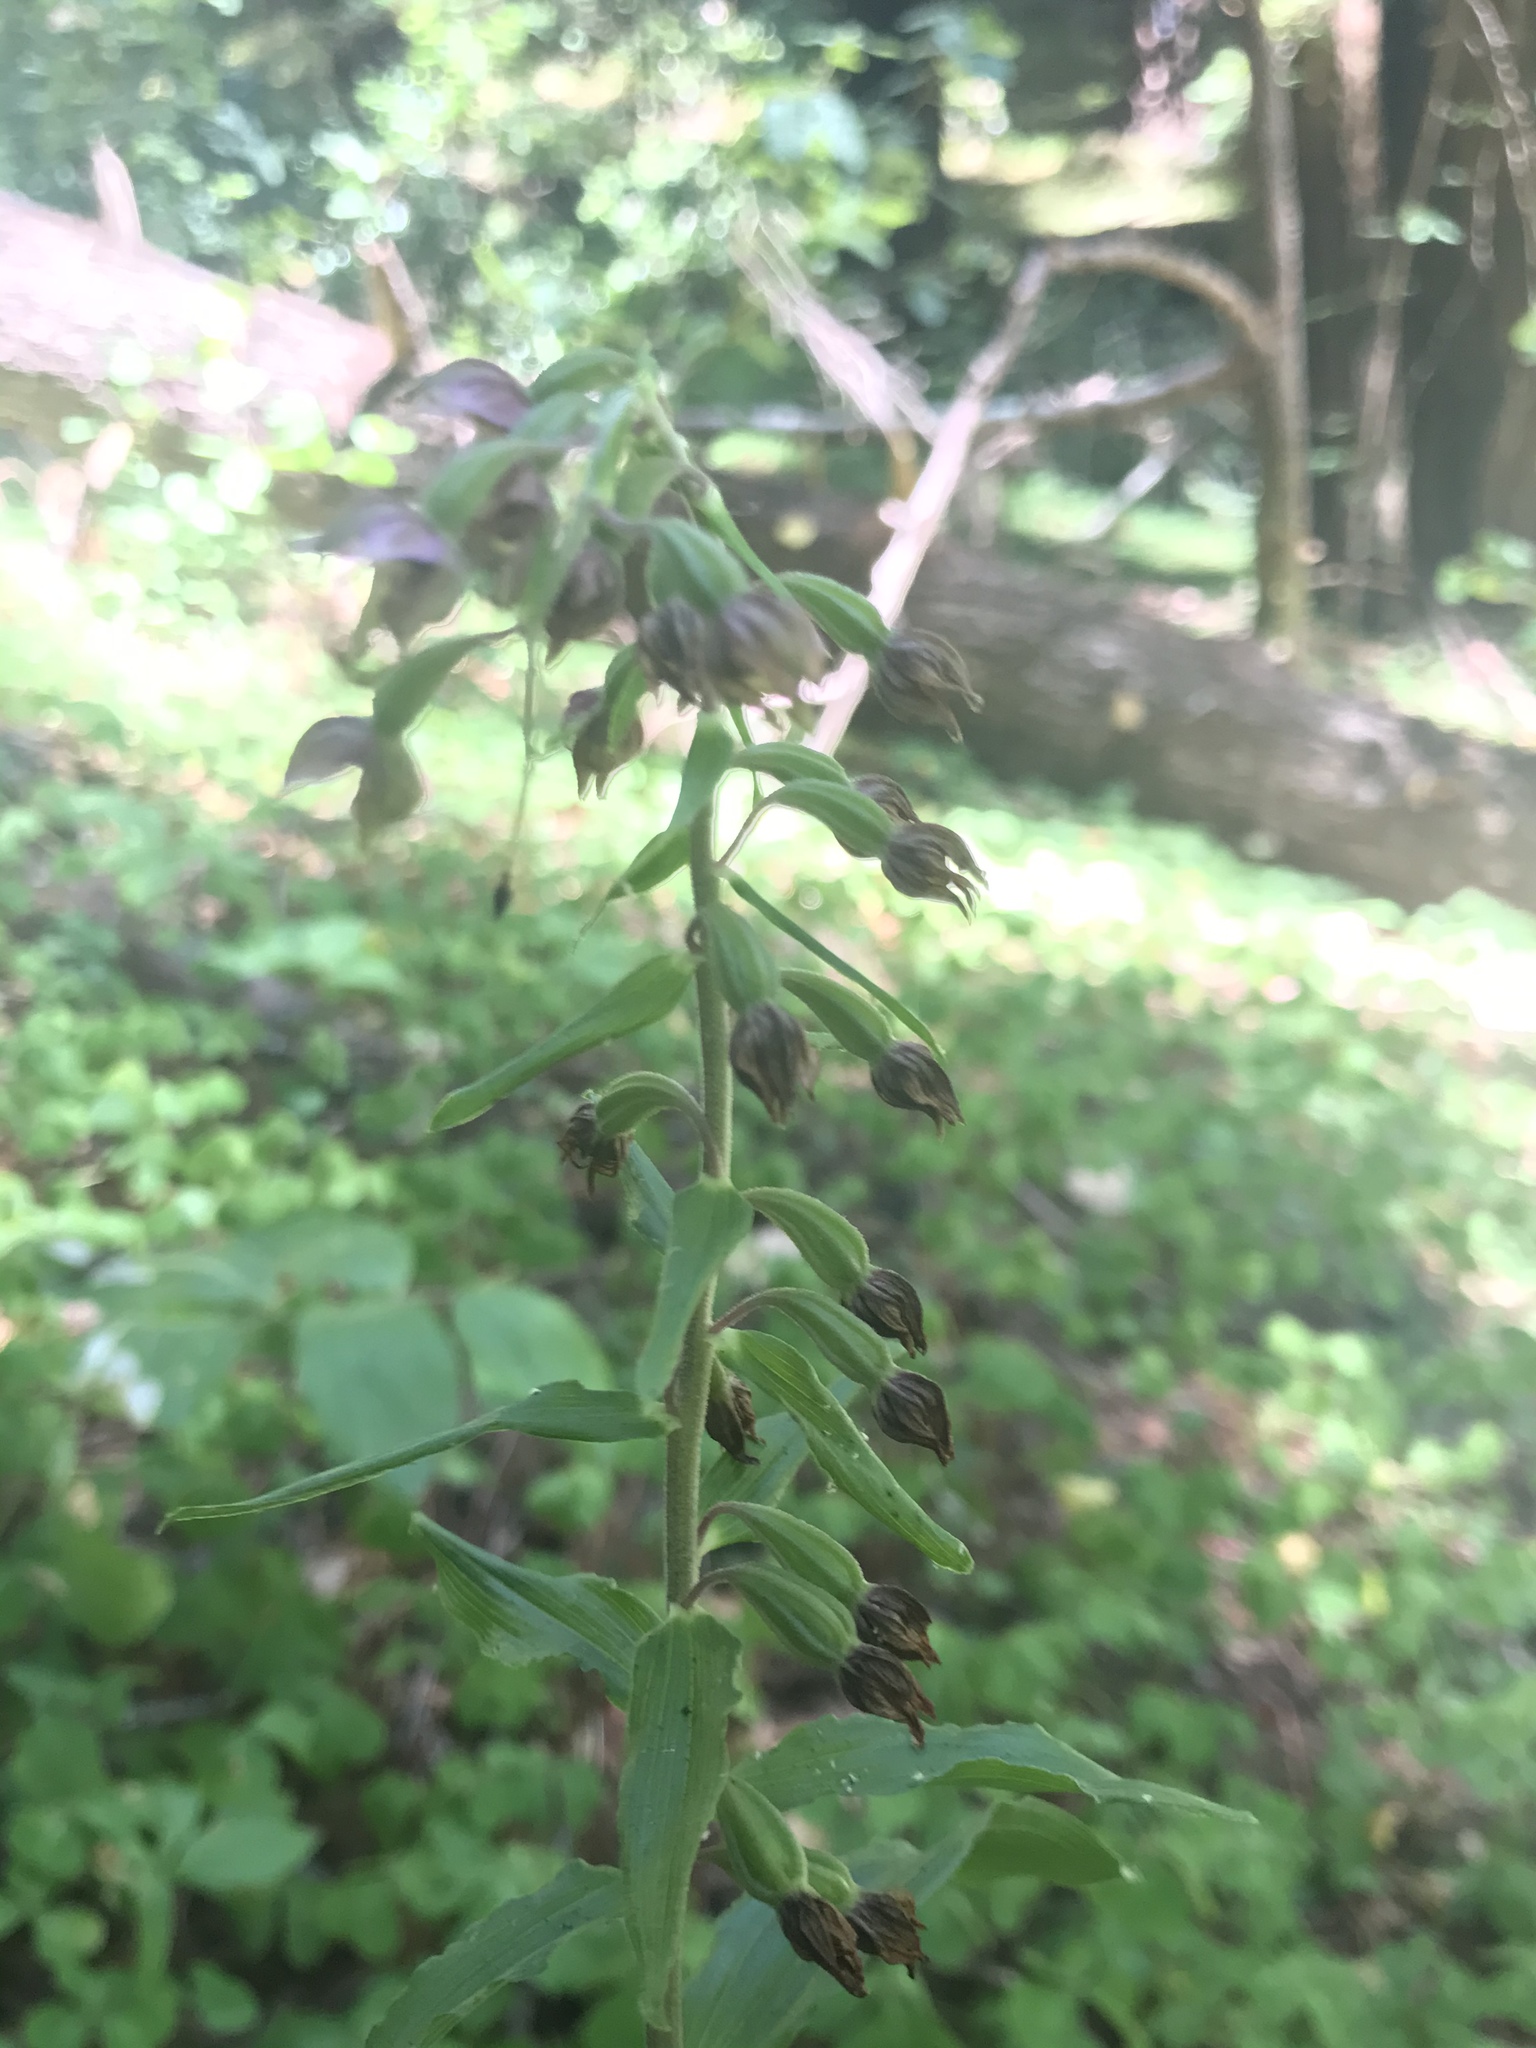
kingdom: Plantae
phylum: Tracheophyta
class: Liliopsida
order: Asparagales
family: Orchidaceae
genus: Epipactis
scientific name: Epipactis helleborine
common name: Broad-leaved helleborine
